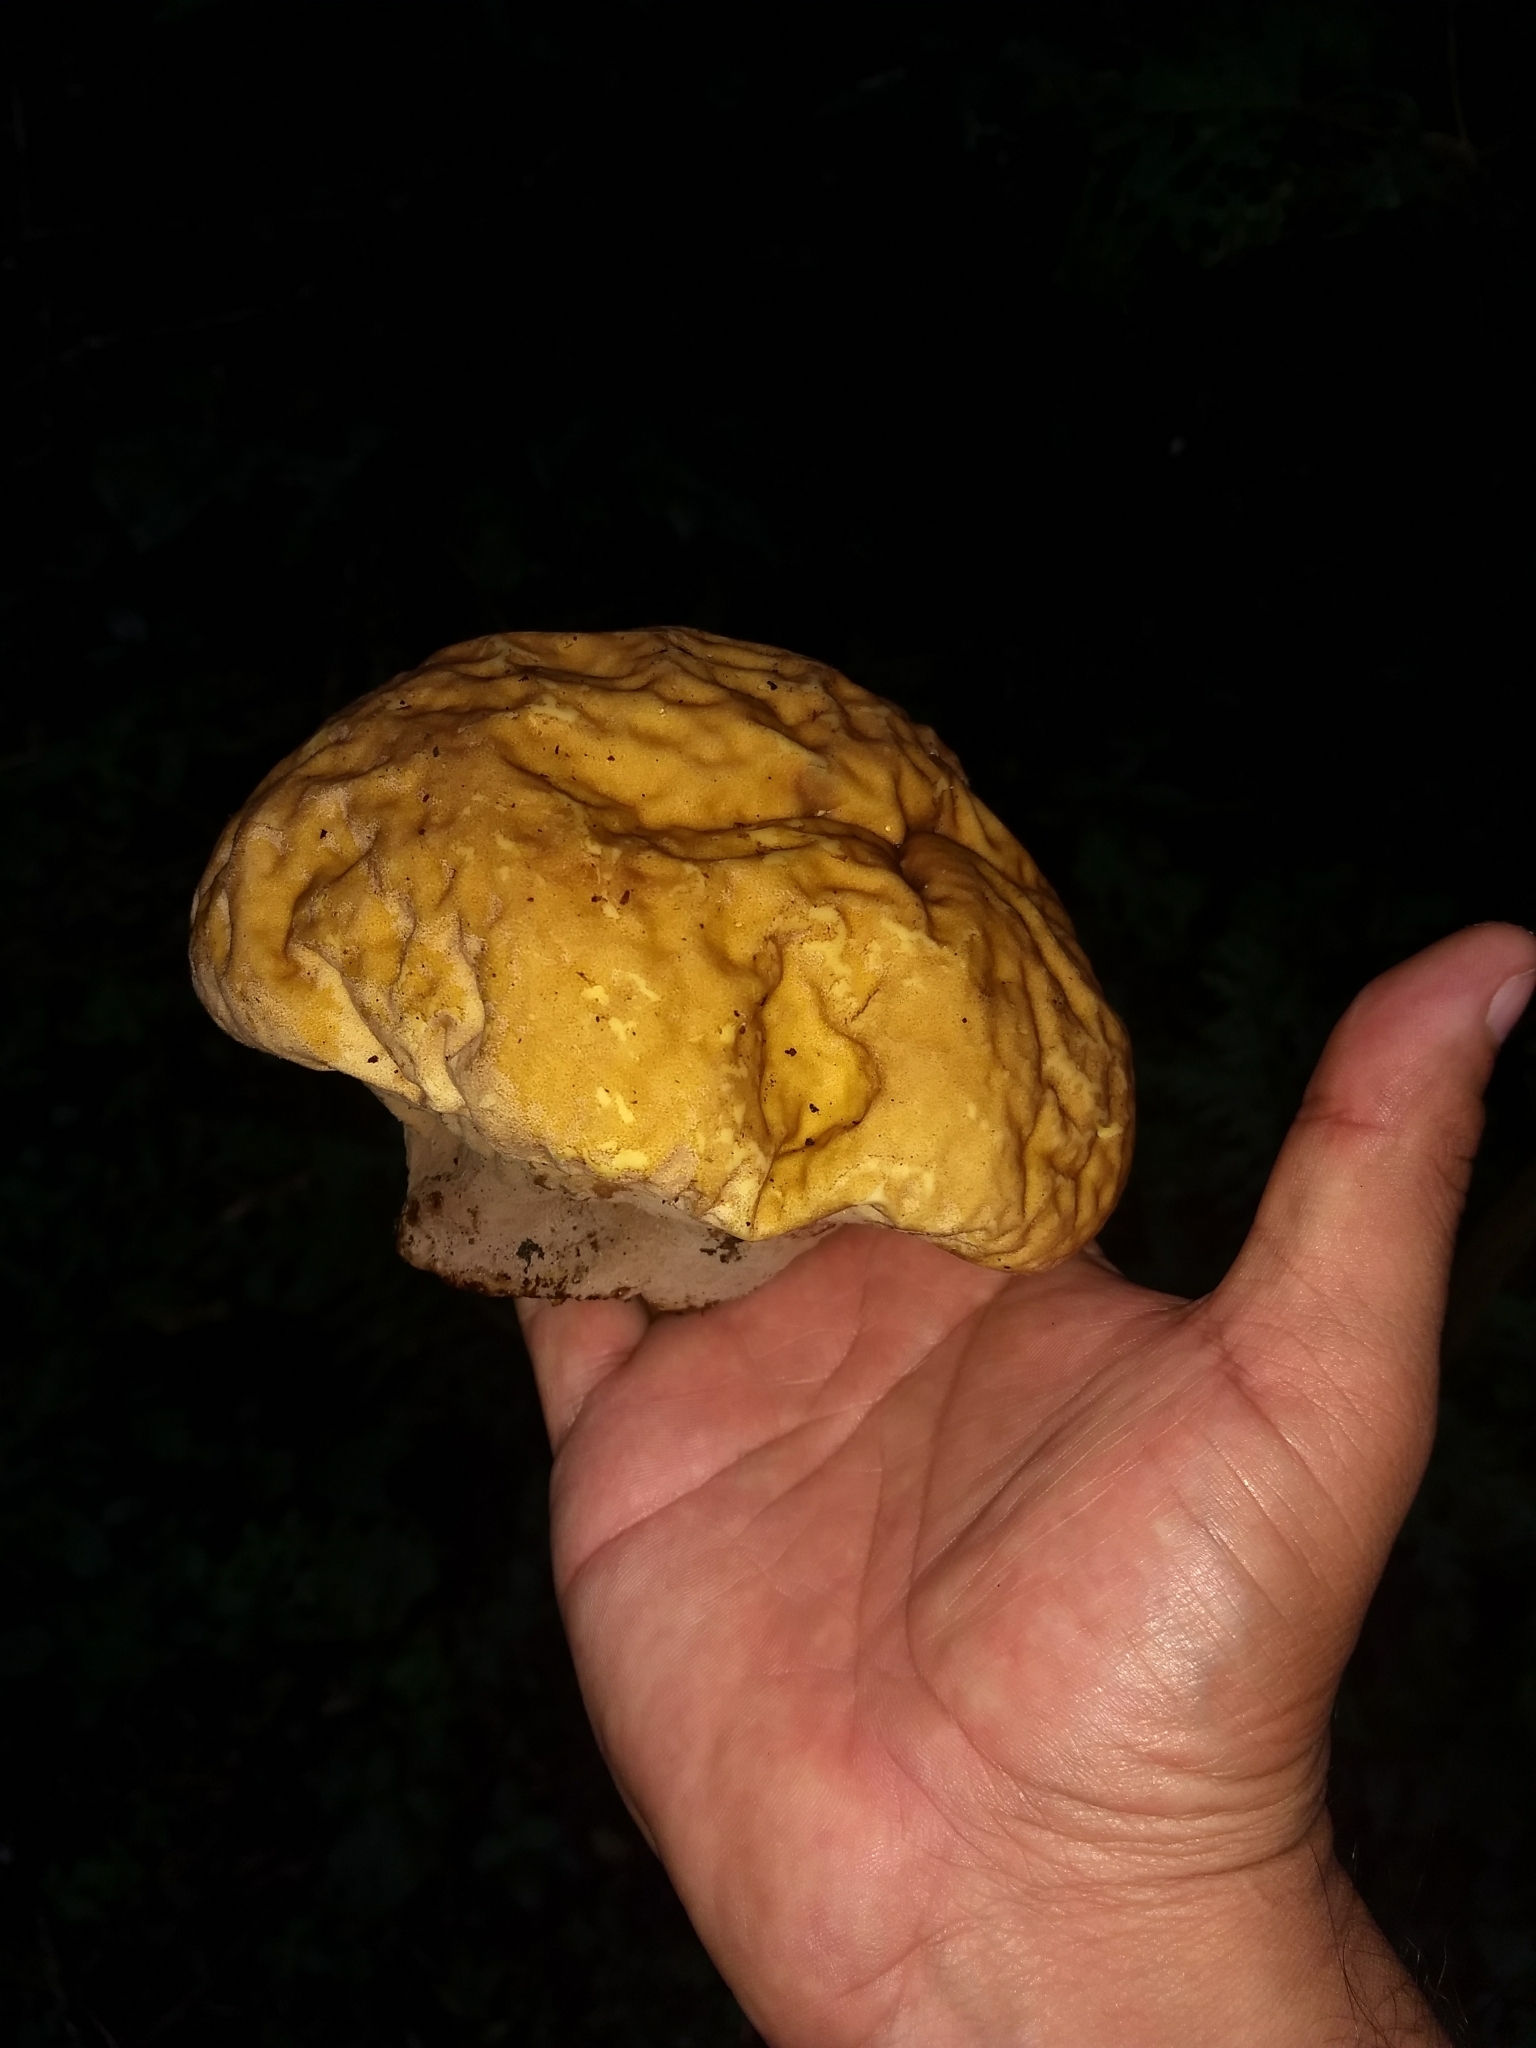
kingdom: Fungi
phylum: Basidiomycota
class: Agaricomycetes
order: Agaricales
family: Lycoperdaceae
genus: Calvatia
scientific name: Calvatia craniiformis
